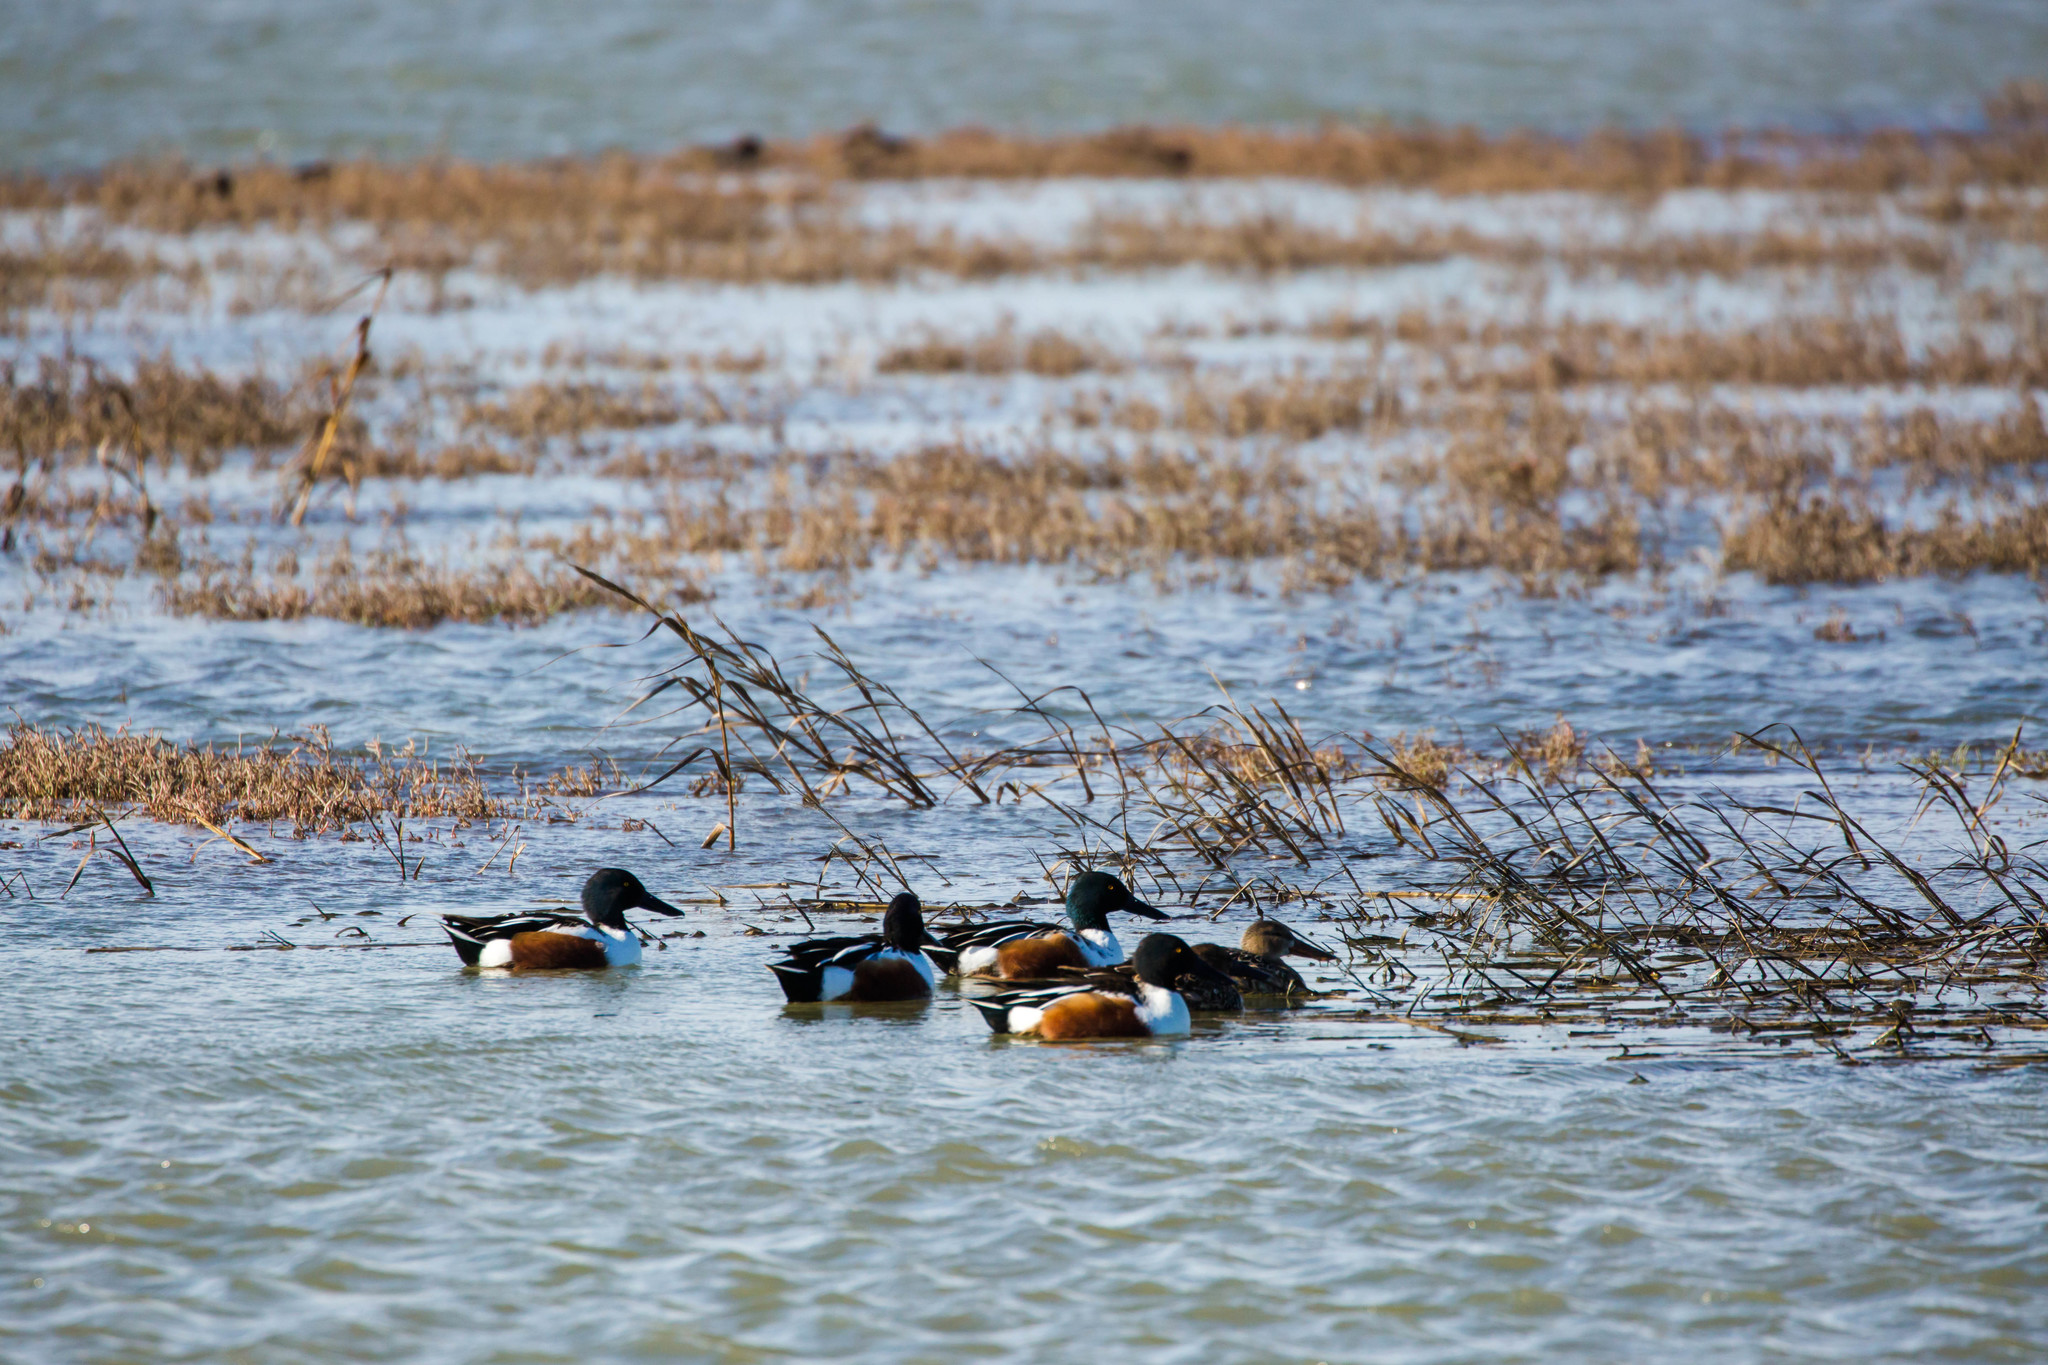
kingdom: Animalia
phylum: Chordata
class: Aves
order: Anseriformes
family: Anatidae
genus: Spatula
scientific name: Spatula clypeata
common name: Northern shoveler
